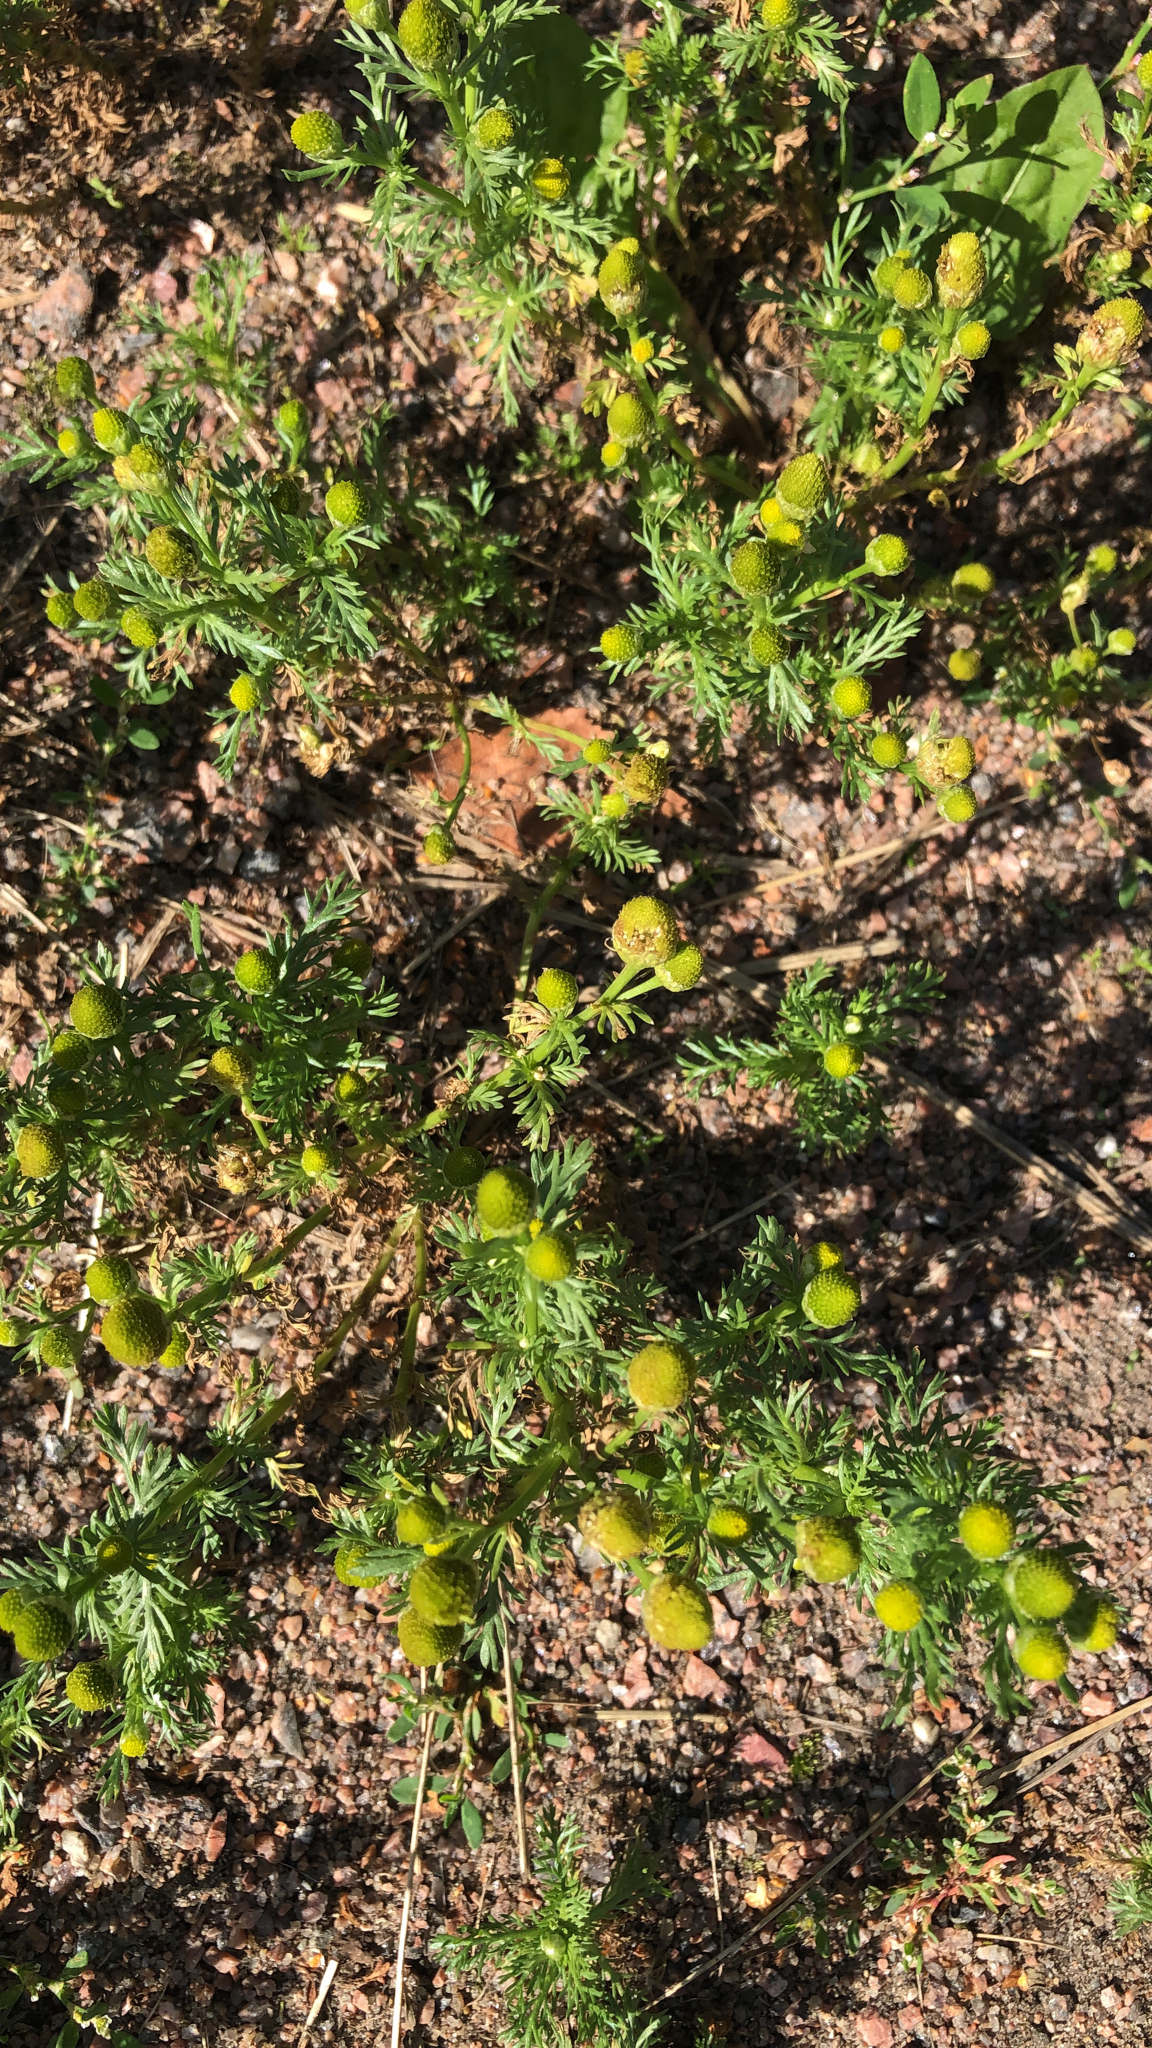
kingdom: Plantae
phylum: Tracheophyta
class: Magnoliopsida
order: Asterales
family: Asteraceae
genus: Matricaria
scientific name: Matricaria discoidea
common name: Disc mayweed
